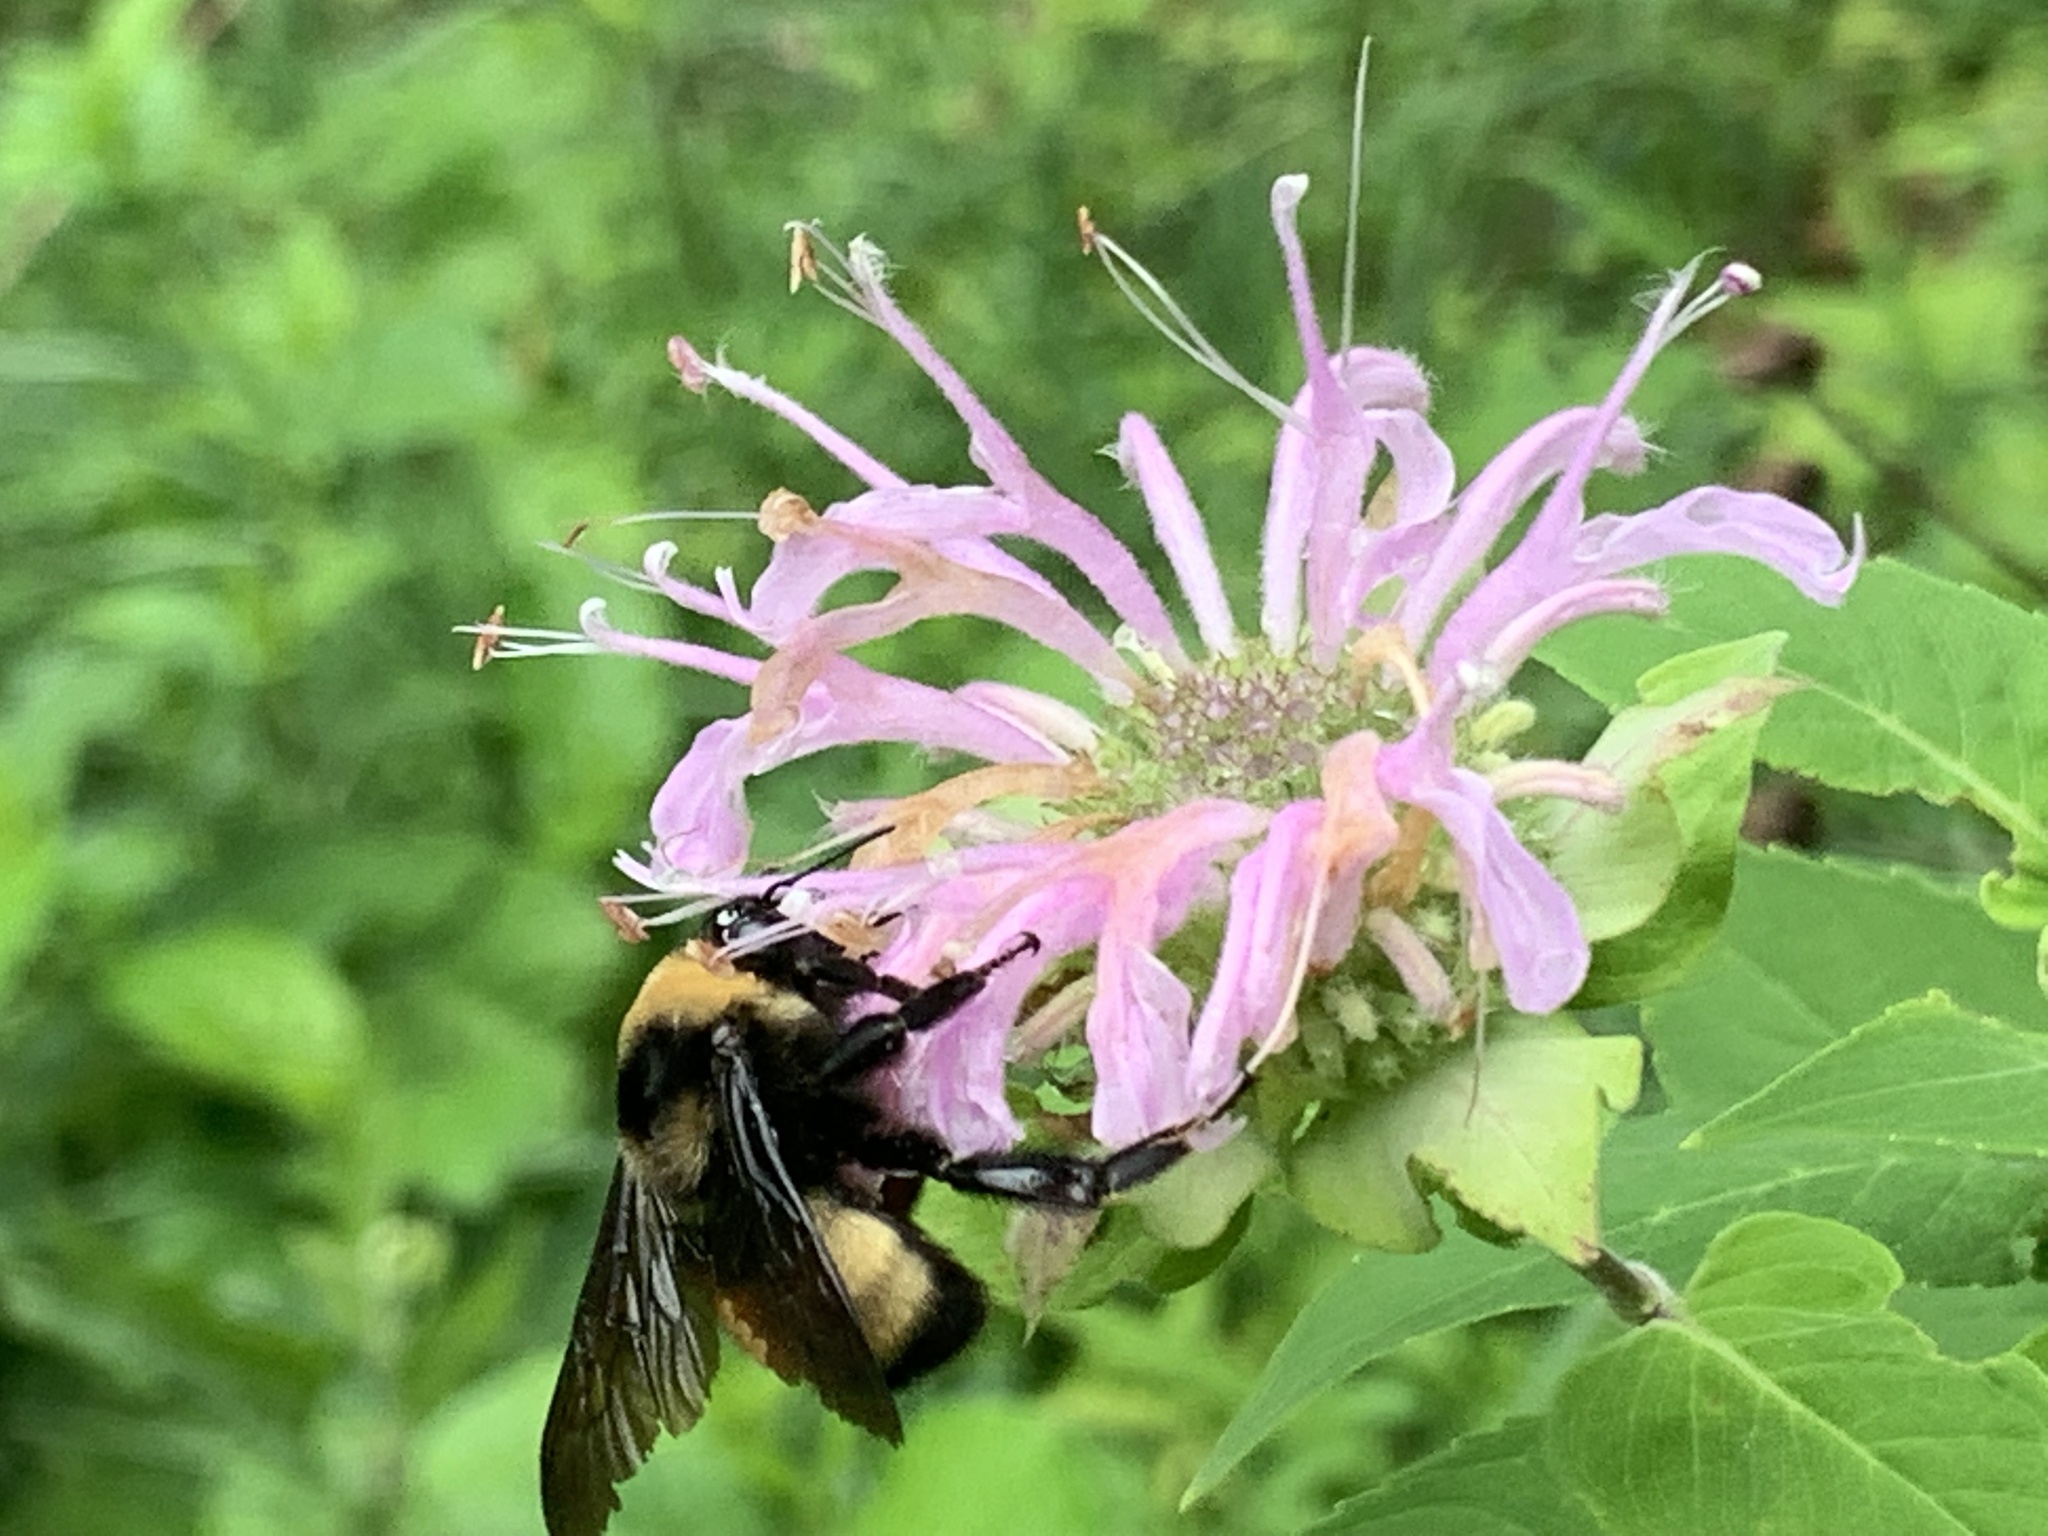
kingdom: Animalia
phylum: Arthropoda
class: Insecta
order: Hymenoptera
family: Apidae
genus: Bombus
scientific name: Bombus auricomus
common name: Black and gold bumble bee
